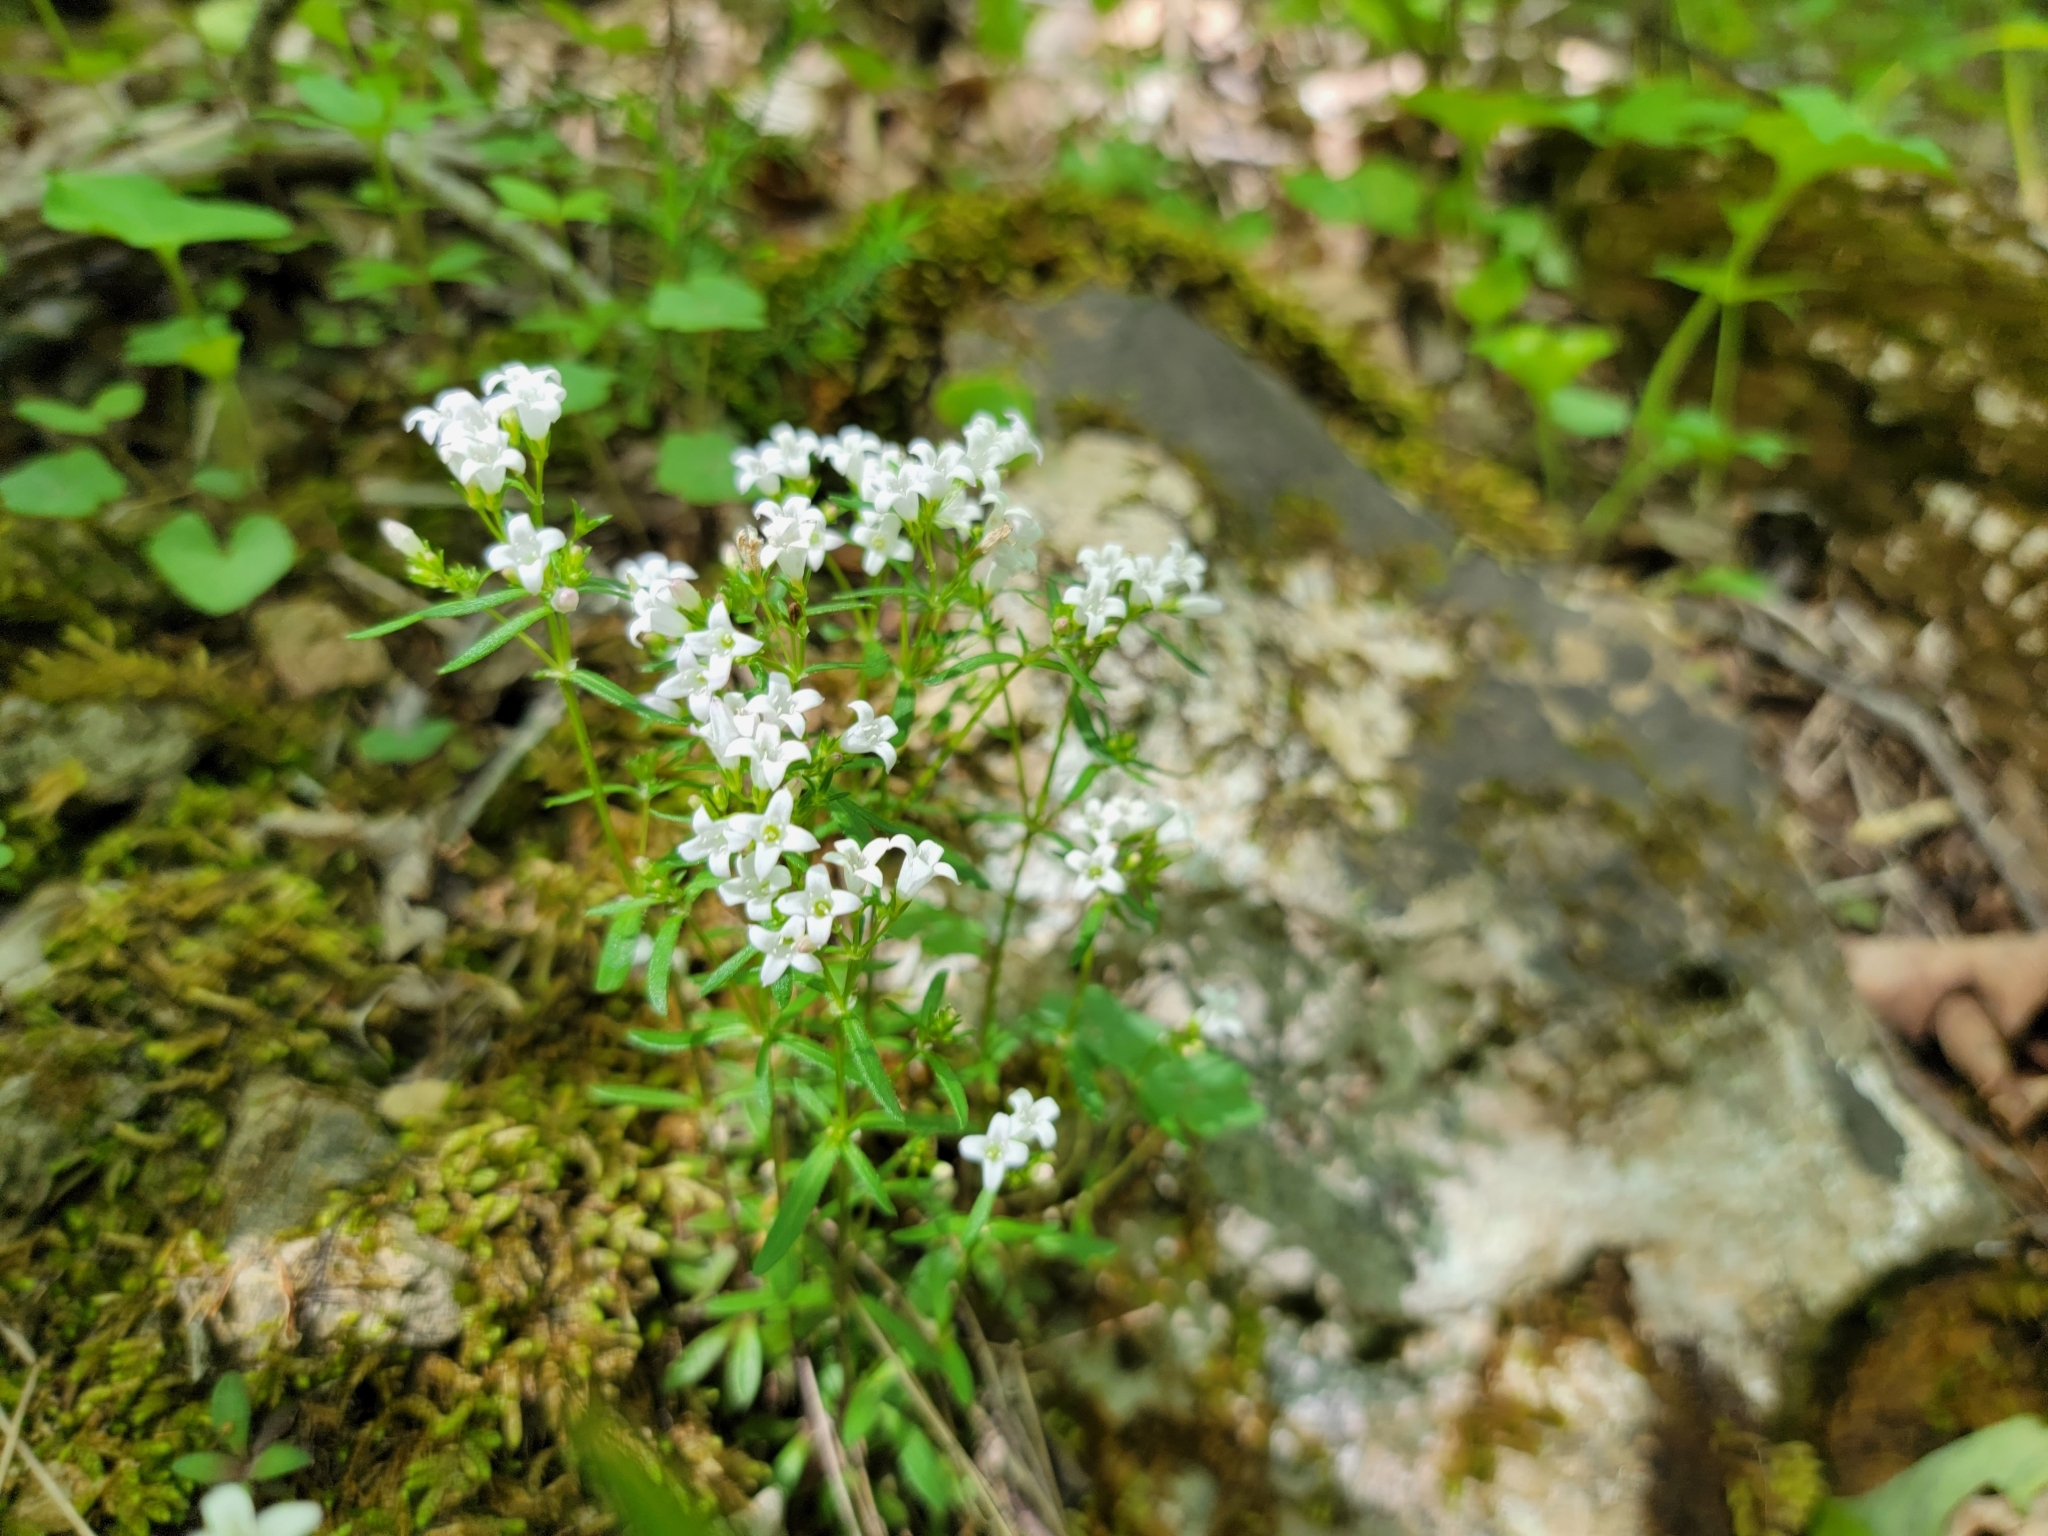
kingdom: Plantae
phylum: Tracheophyta
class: Magnoliopsida
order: Gentianales
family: Rubiaceae
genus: Houstonia
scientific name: Houstonia longifolia
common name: Long-leaved bluets
